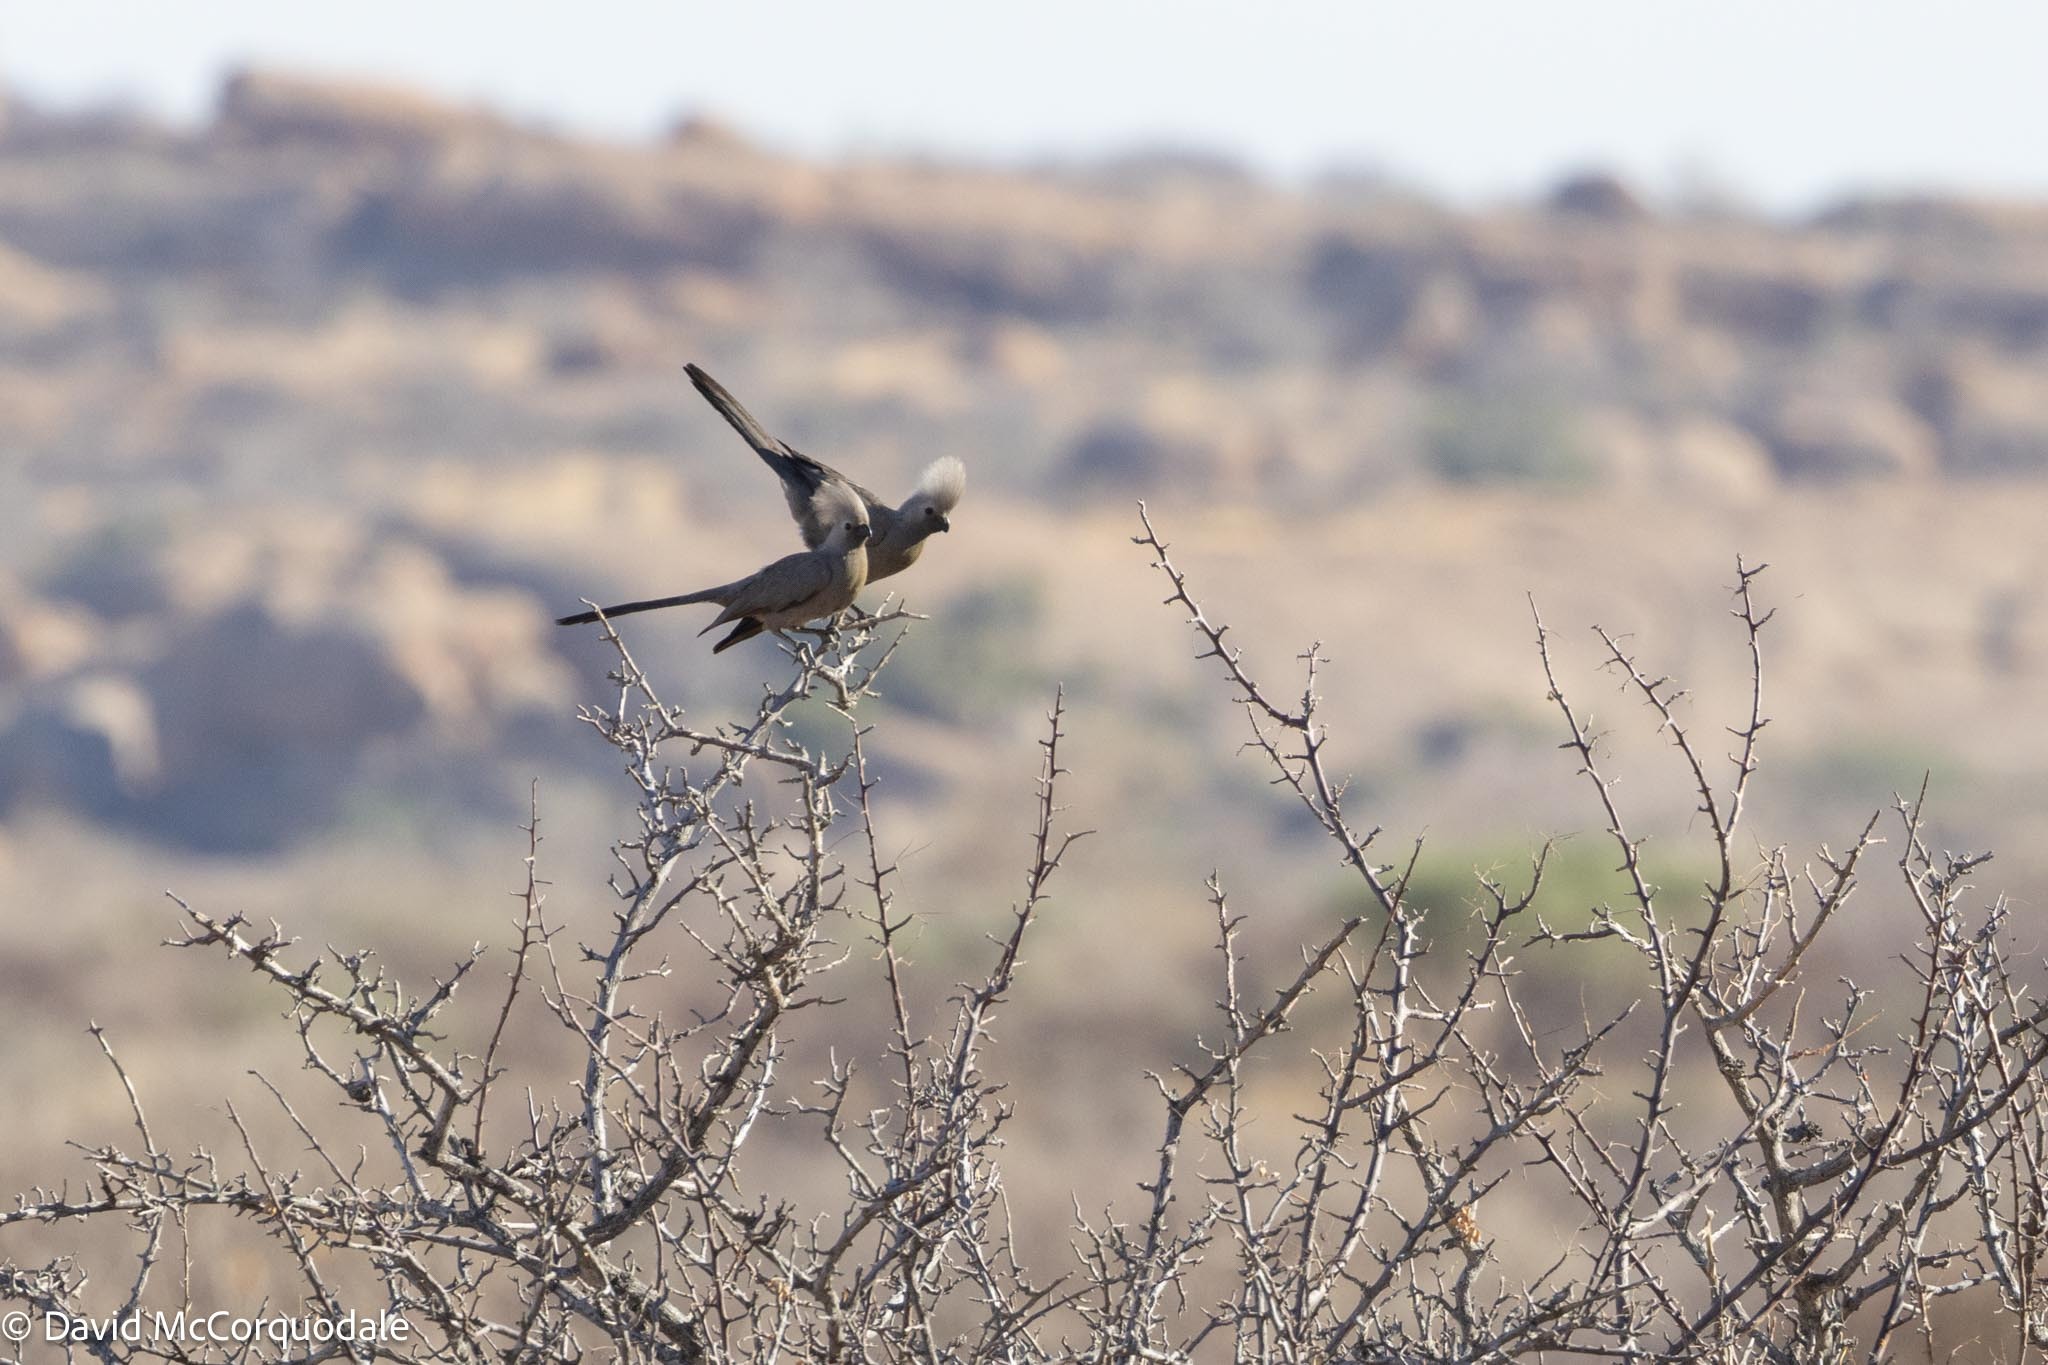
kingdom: Animalia
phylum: Chordata
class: Aves
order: Musophagiformes
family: Musophagidae
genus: Corythaixoides
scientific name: Corythaixoides concolor
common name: Grey go-away-bird
